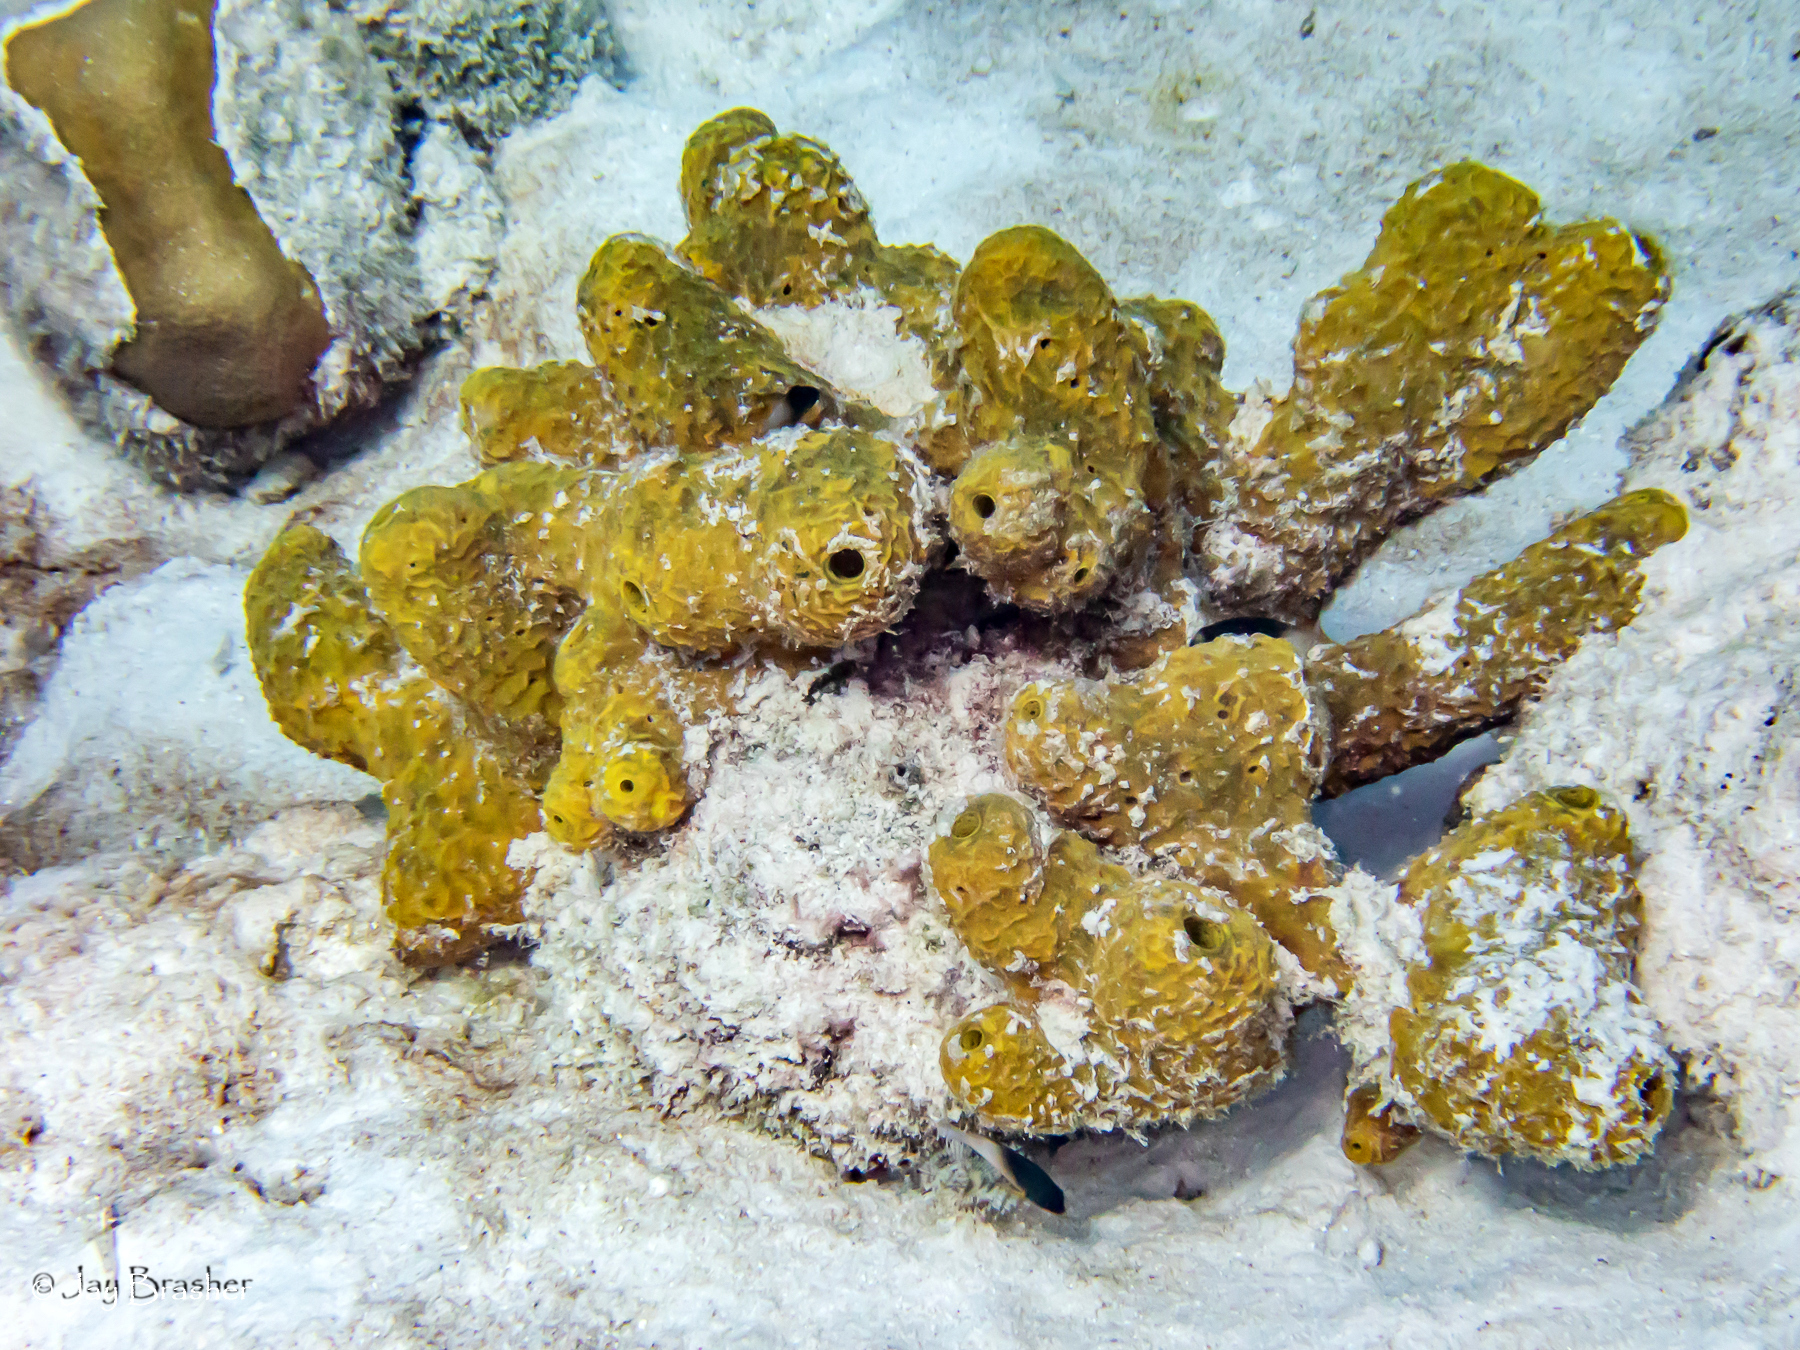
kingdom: Animalia
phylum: Porifera
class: Demospongiae
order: Verongiida
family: Aplysinidae
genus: Aiolochroia
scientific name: Aiolochroia crassa
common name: Branching tube sponge
